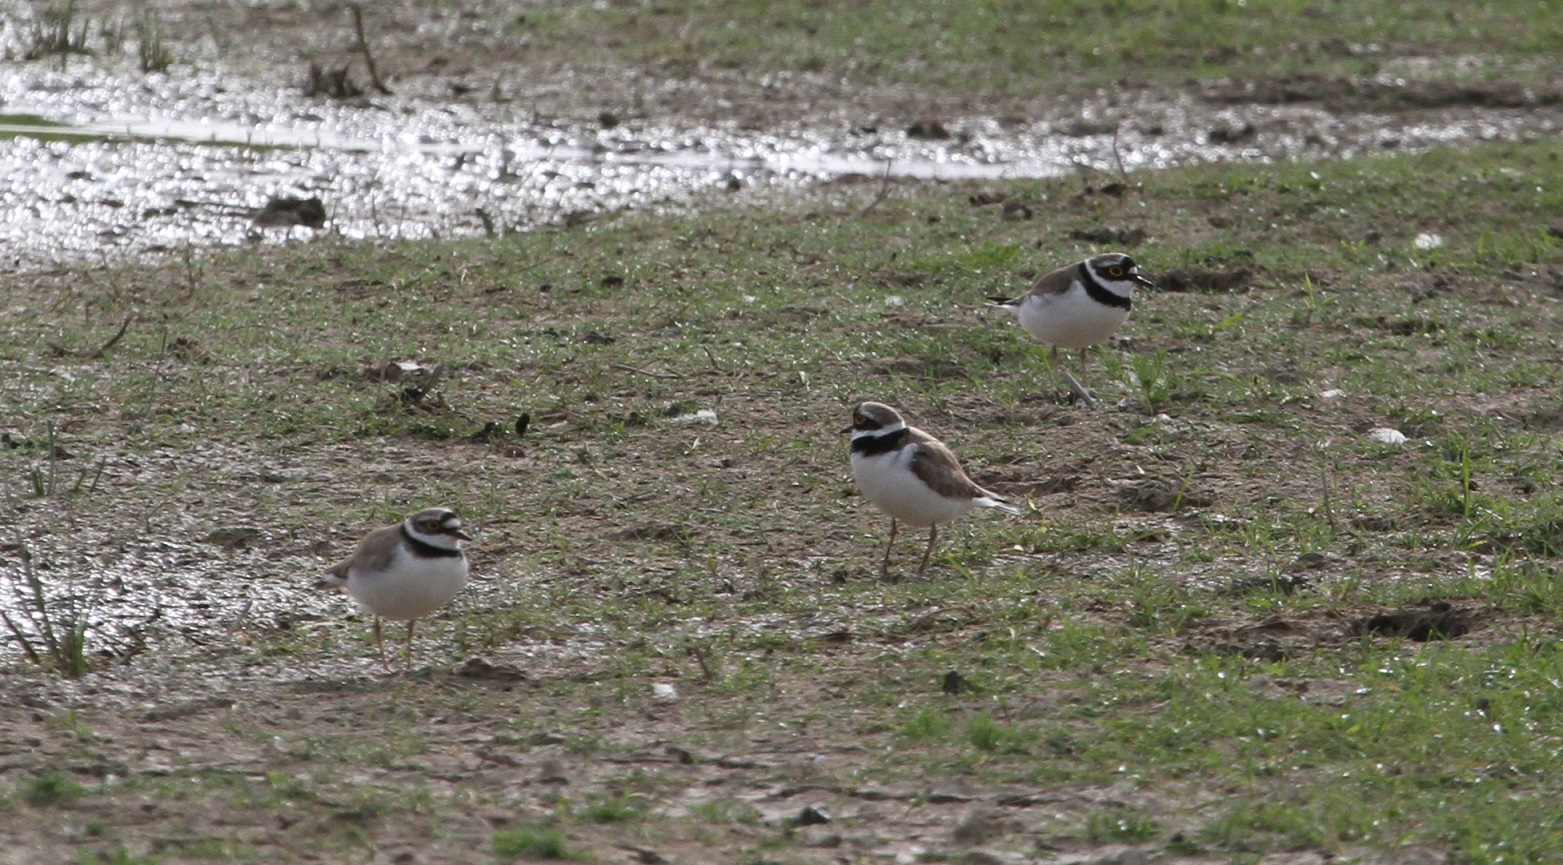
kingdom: Animalia
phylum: Chordata
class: Aves
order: Charadriiformes
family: Charadriidae
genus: Charadrius
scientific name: Charadrius dubius
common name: Little ringed plover
